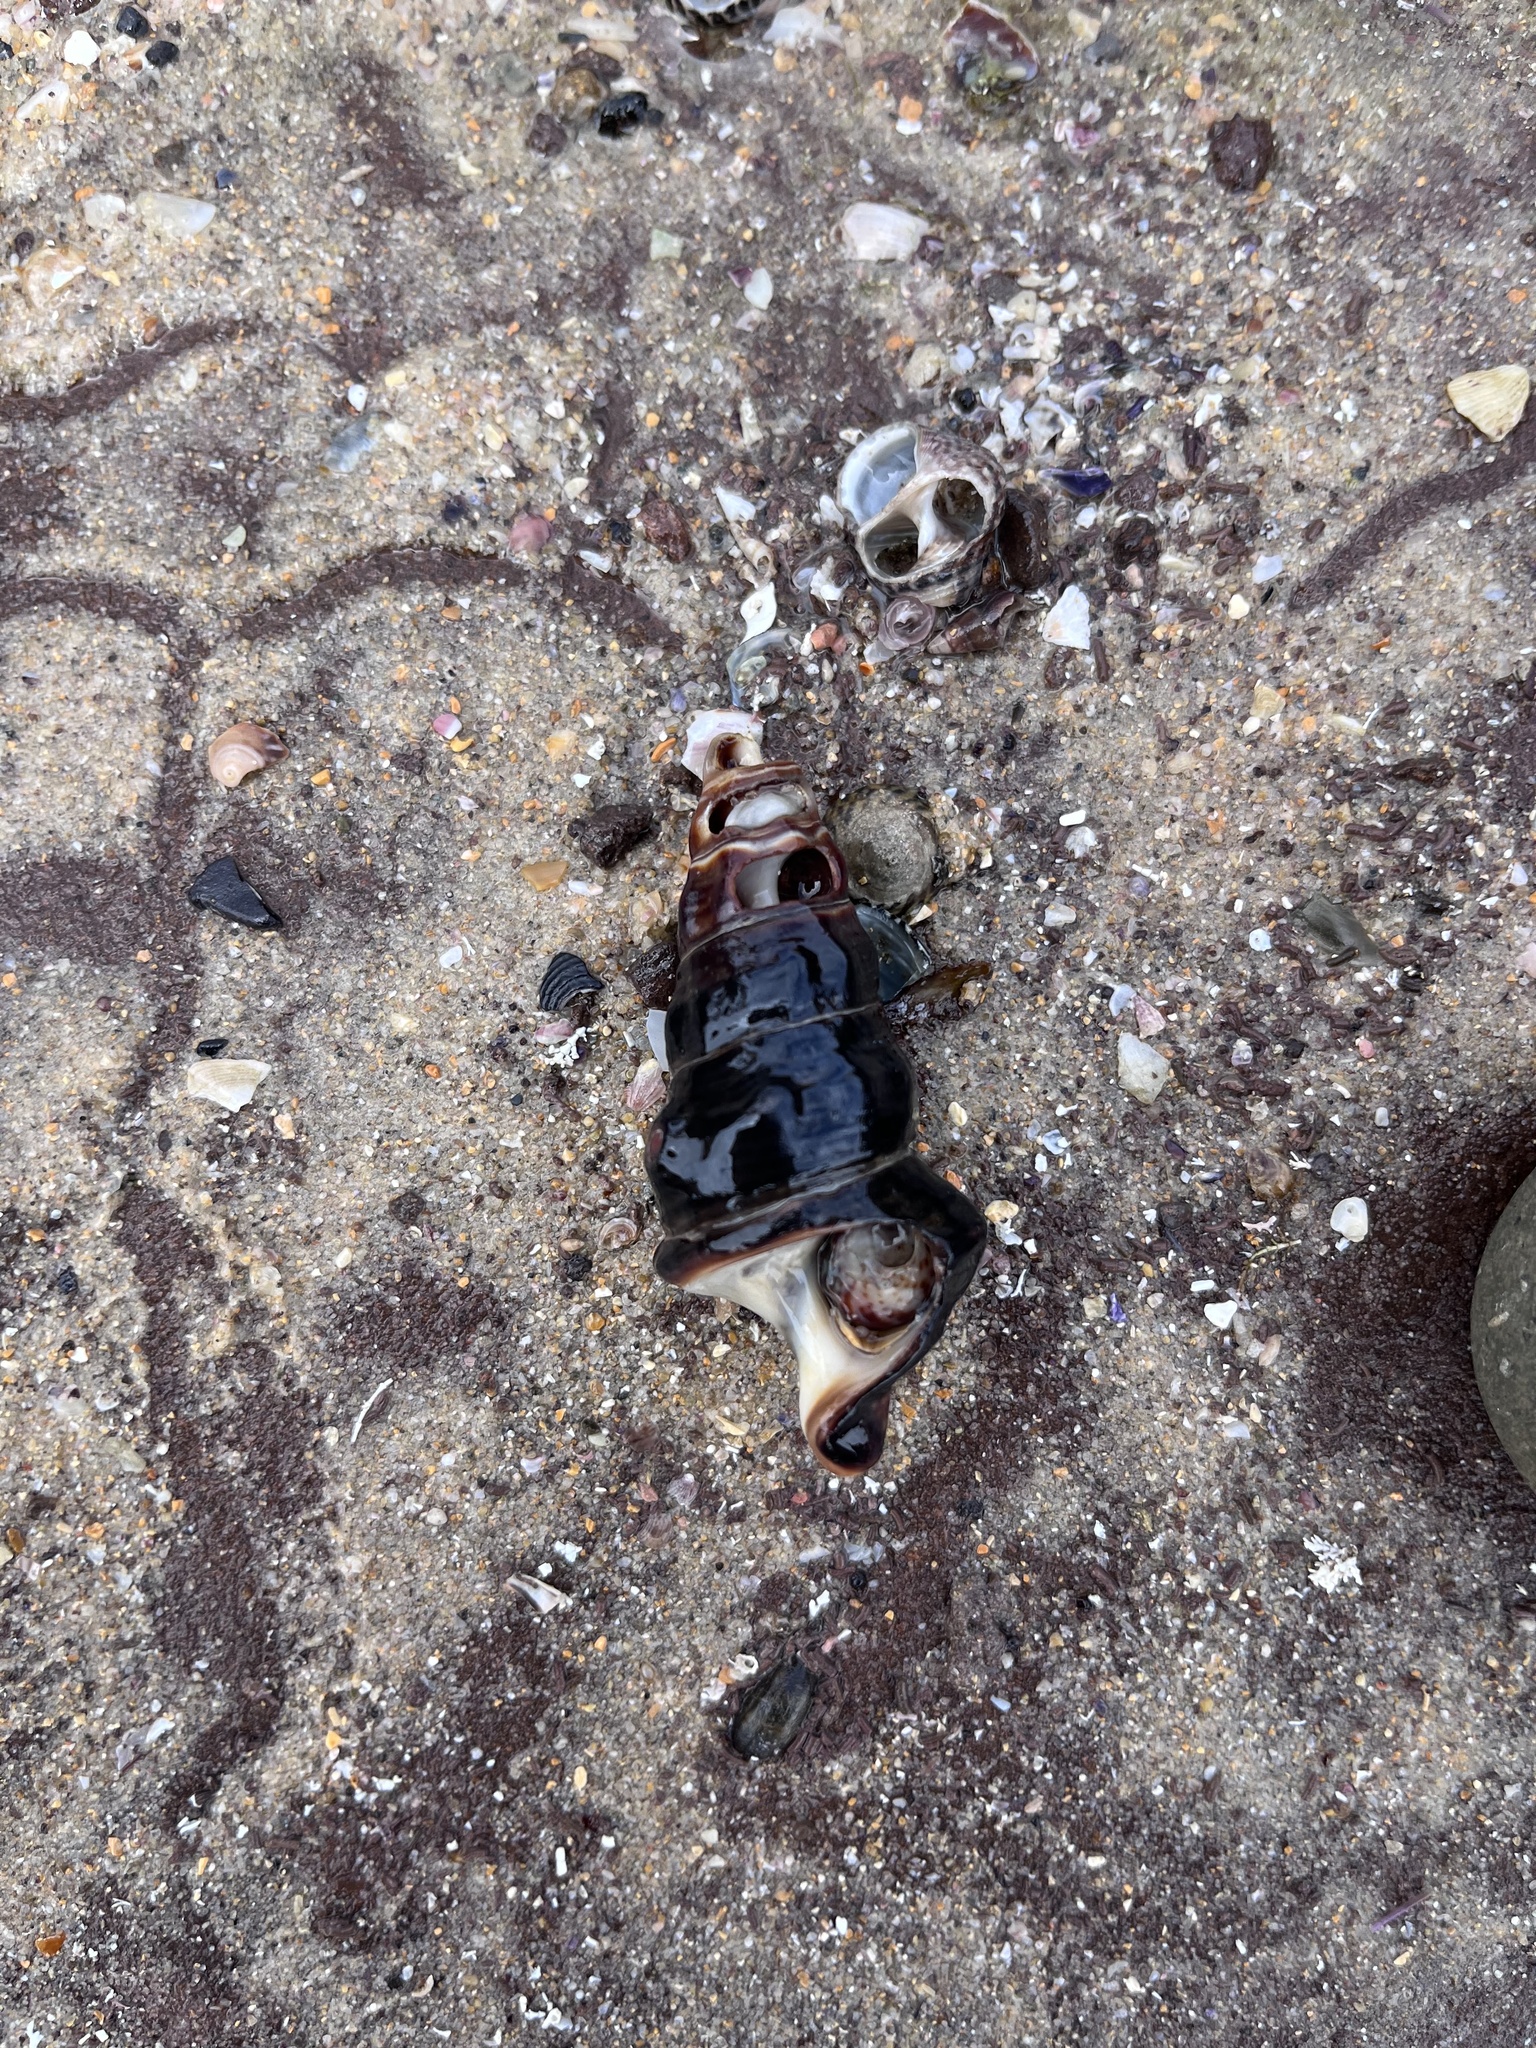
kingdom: Animalia
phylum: Mollusca
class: Gastropoda
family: Batillariidae
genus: Pyrazus
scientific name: Pyrazus ebeninus
